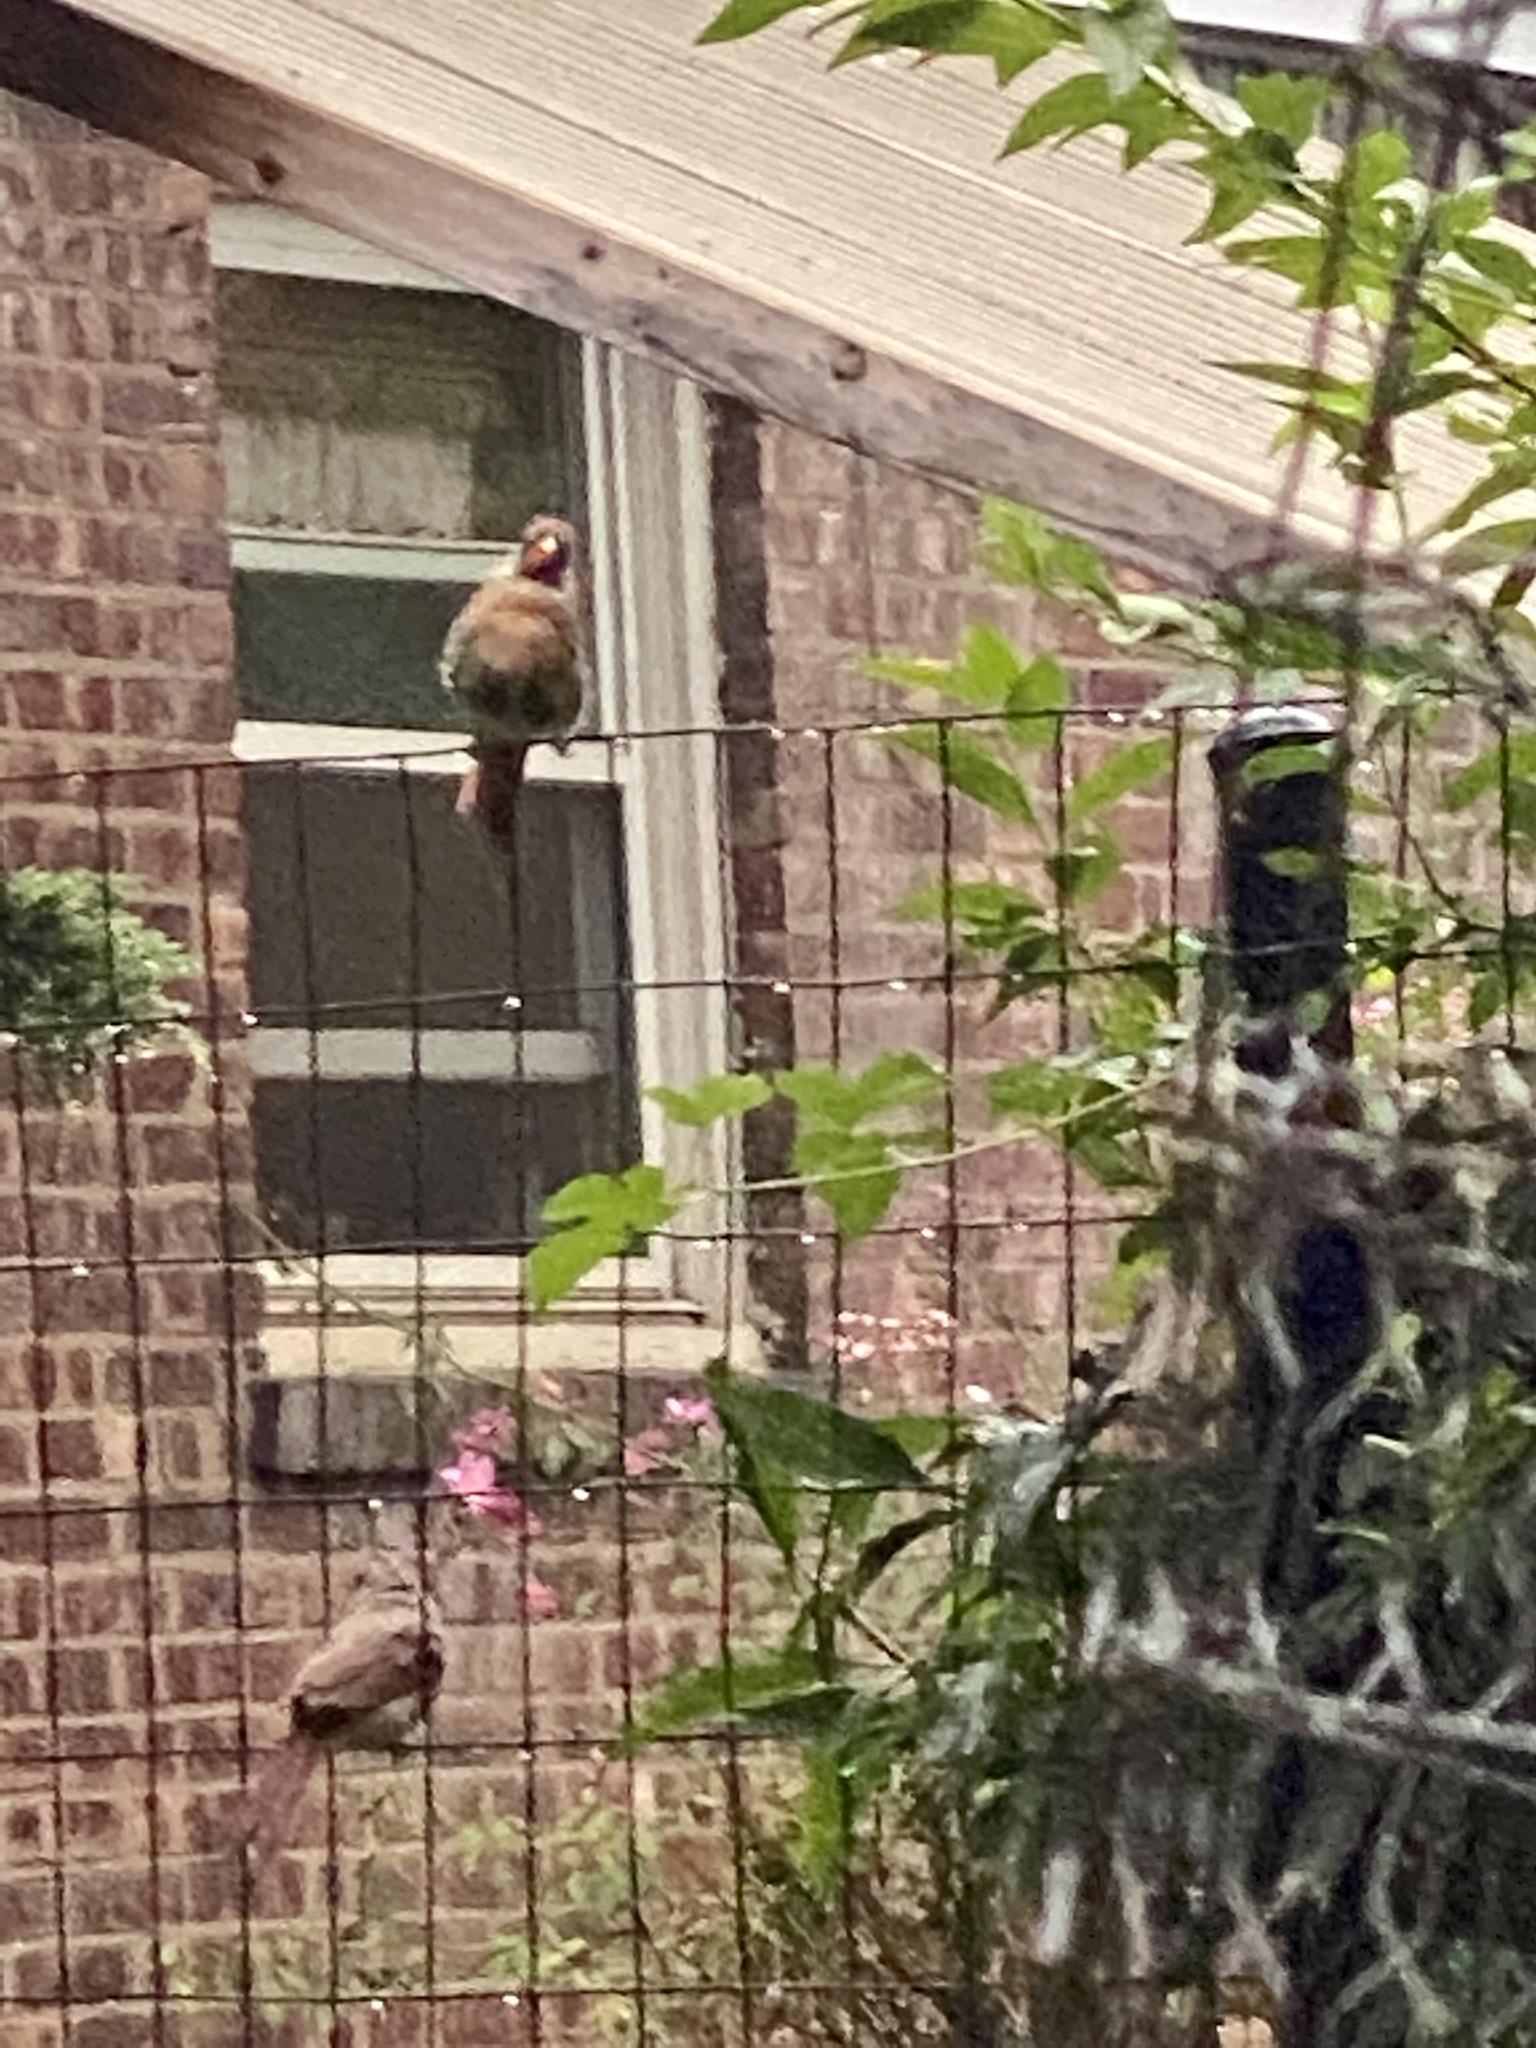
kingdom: Animalia
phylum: Chordata
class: Aves
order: Passeriformes
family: Cardinalidae
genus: Cardinalis
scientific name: Cardinalis cardinalis
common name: Northern cardinal
